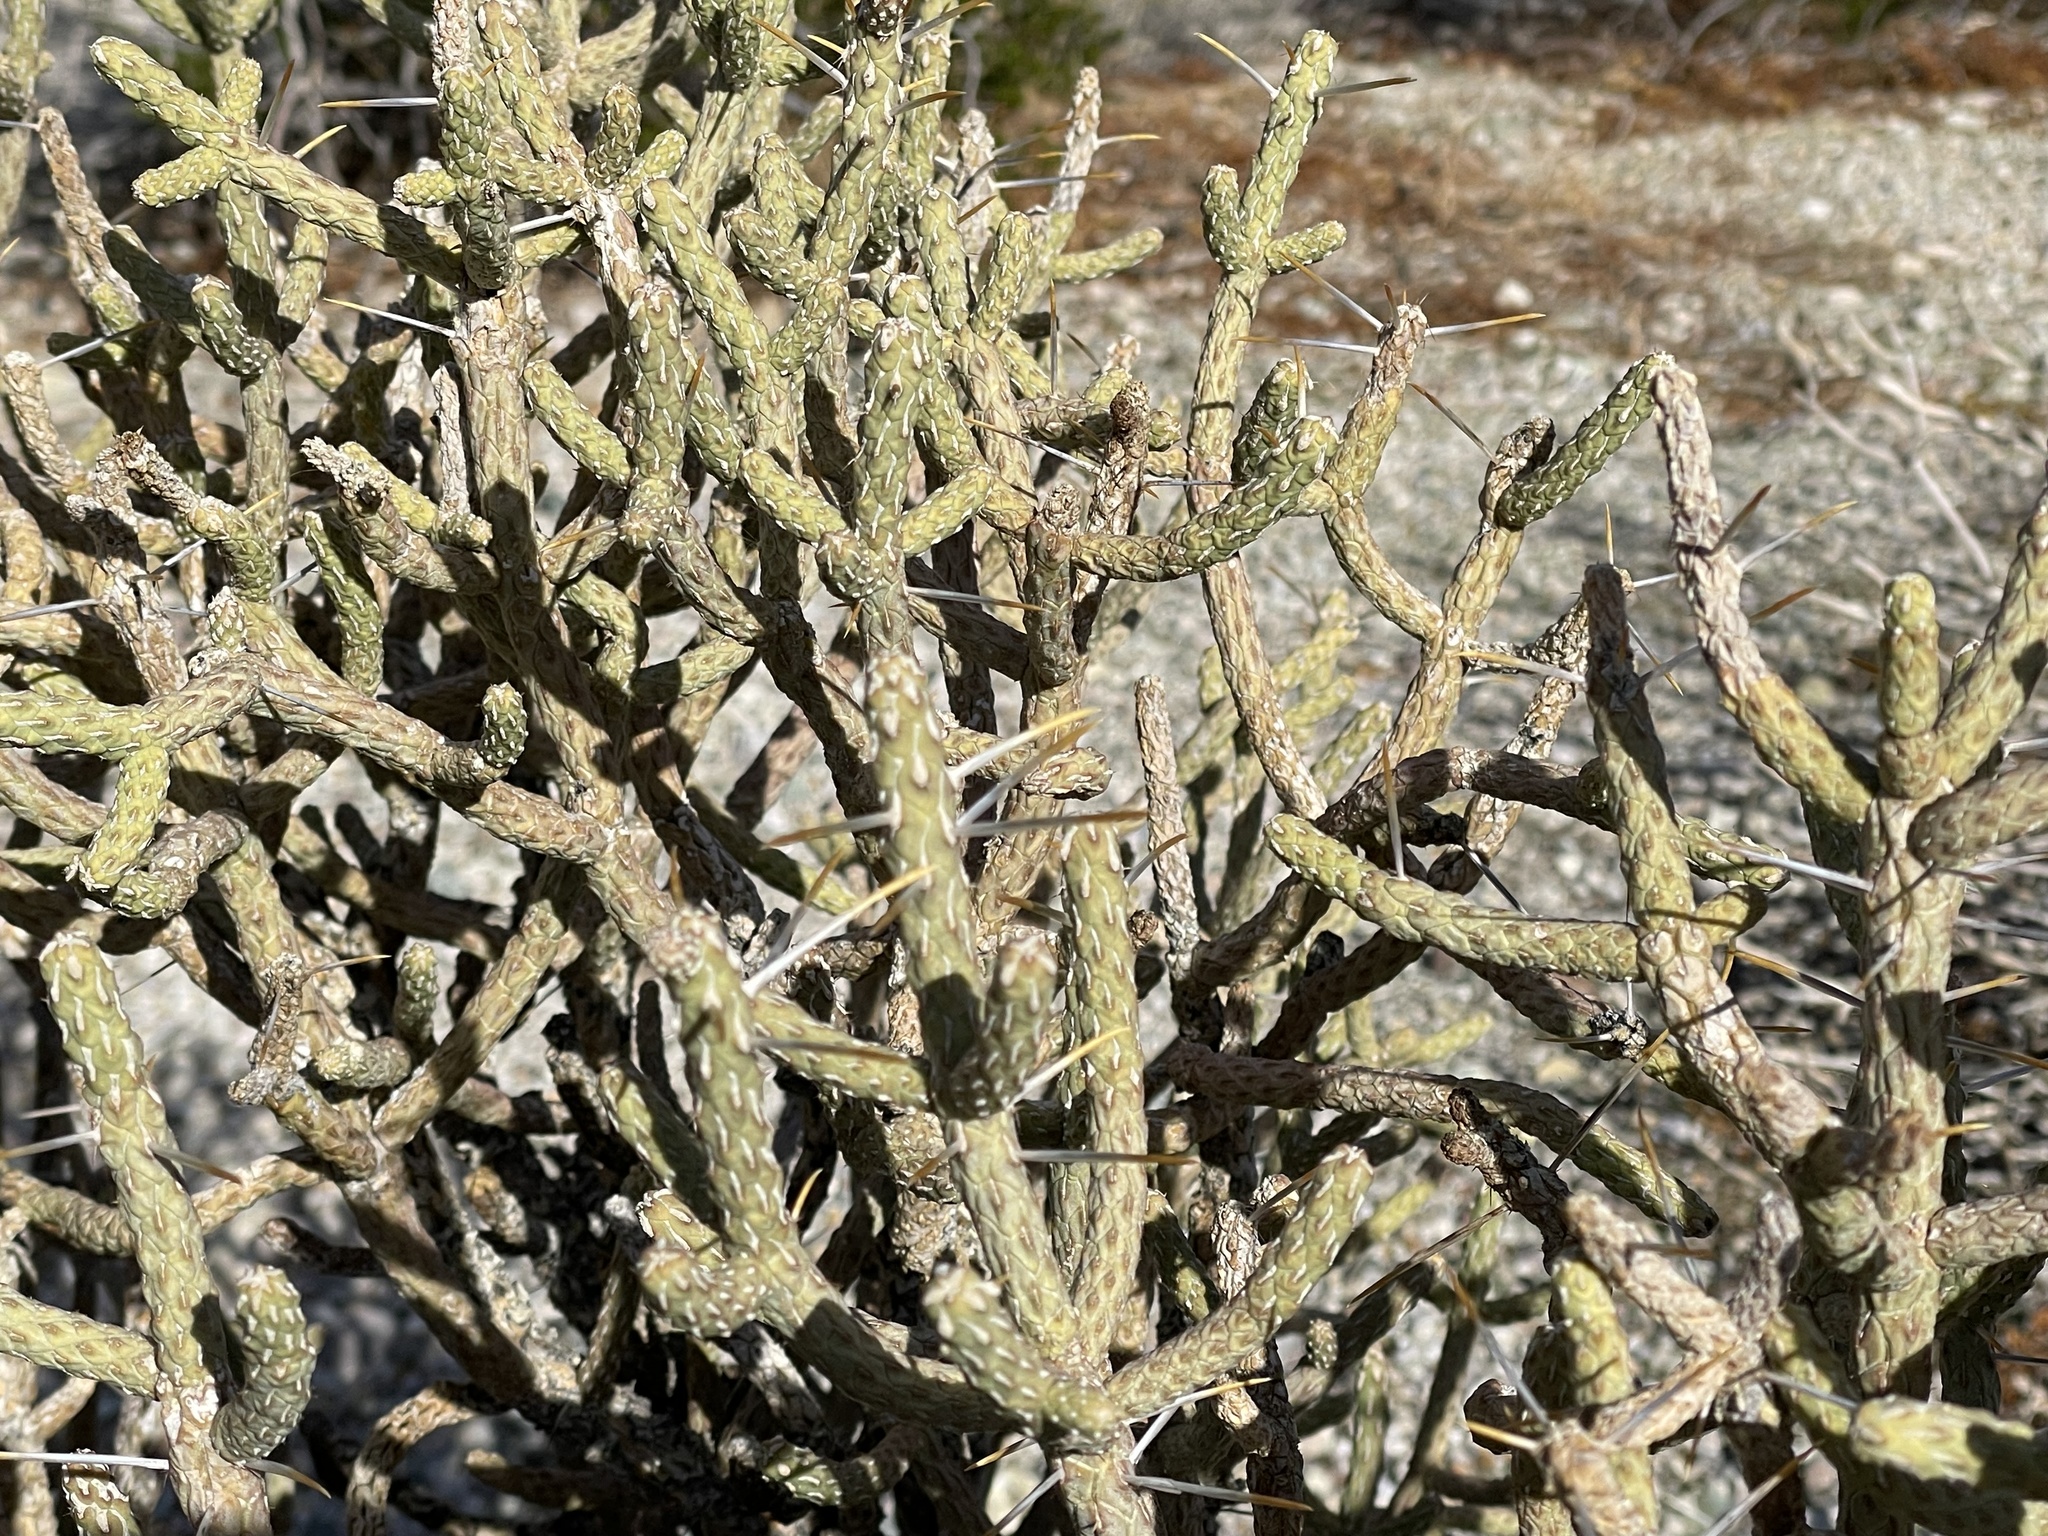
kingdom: Plantae
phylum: Tracheophyta
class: Magnoliopsida
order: Caryophyllales
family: Cactaceae
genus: Cylindropuntia
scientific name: Cylindropuntia ramosissima
